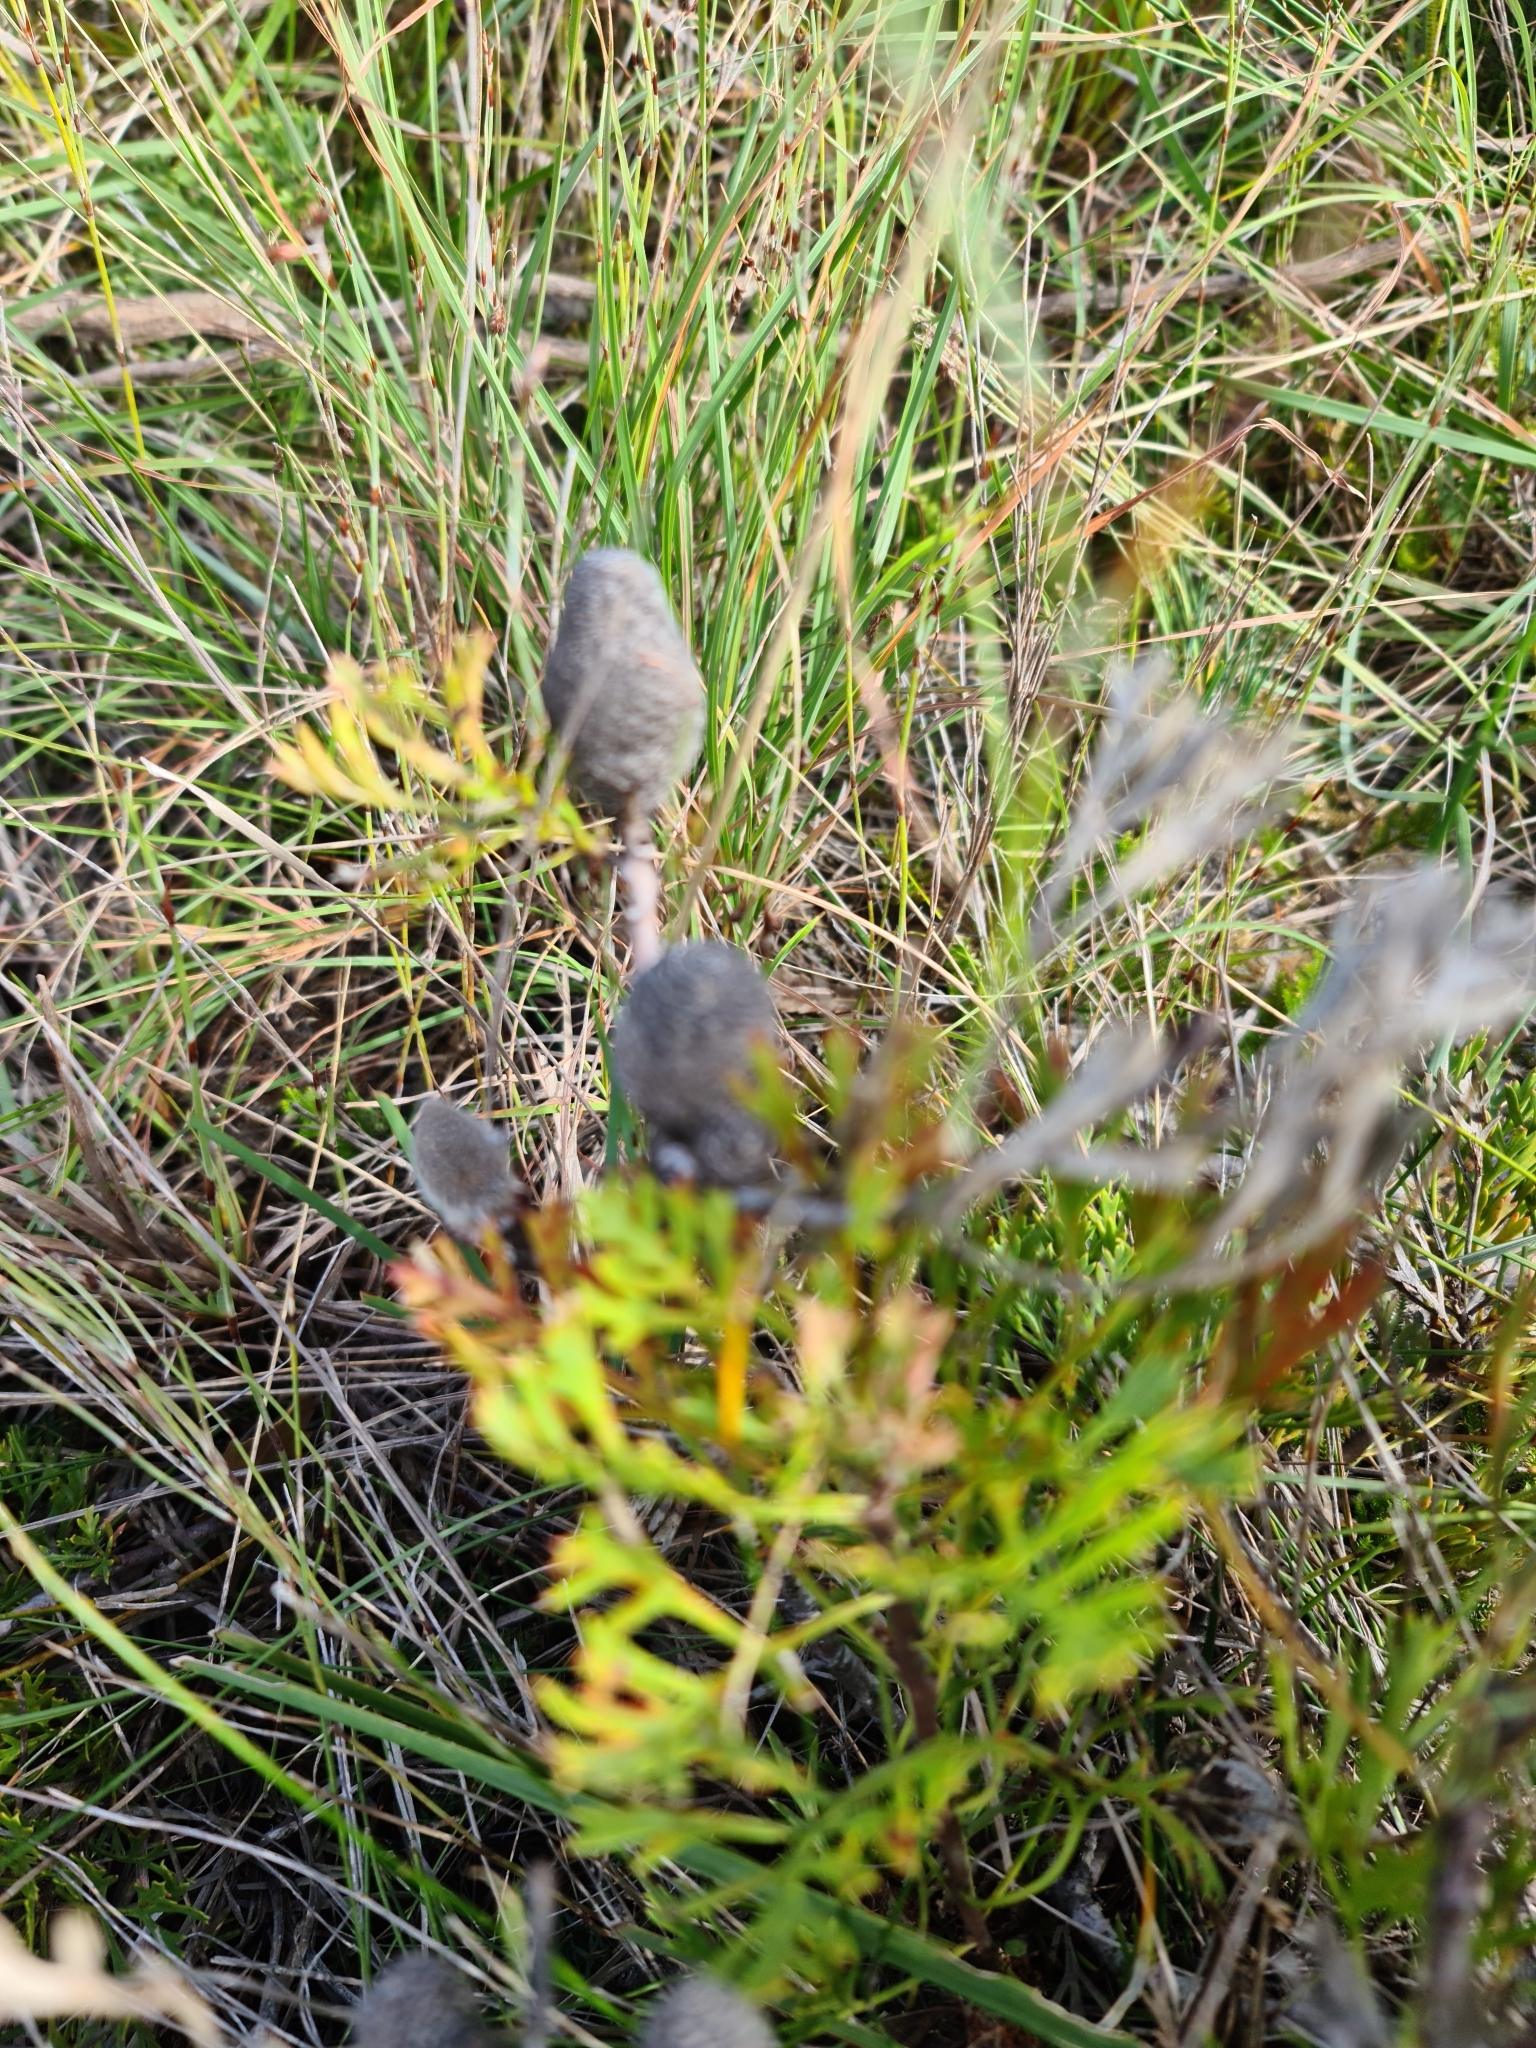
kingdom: Plantae
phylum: Tracheophyta
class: Magnoliopsida
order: Proteales
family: Proteaceae
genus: Isopogon
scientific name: Isopogon anemonifolius
